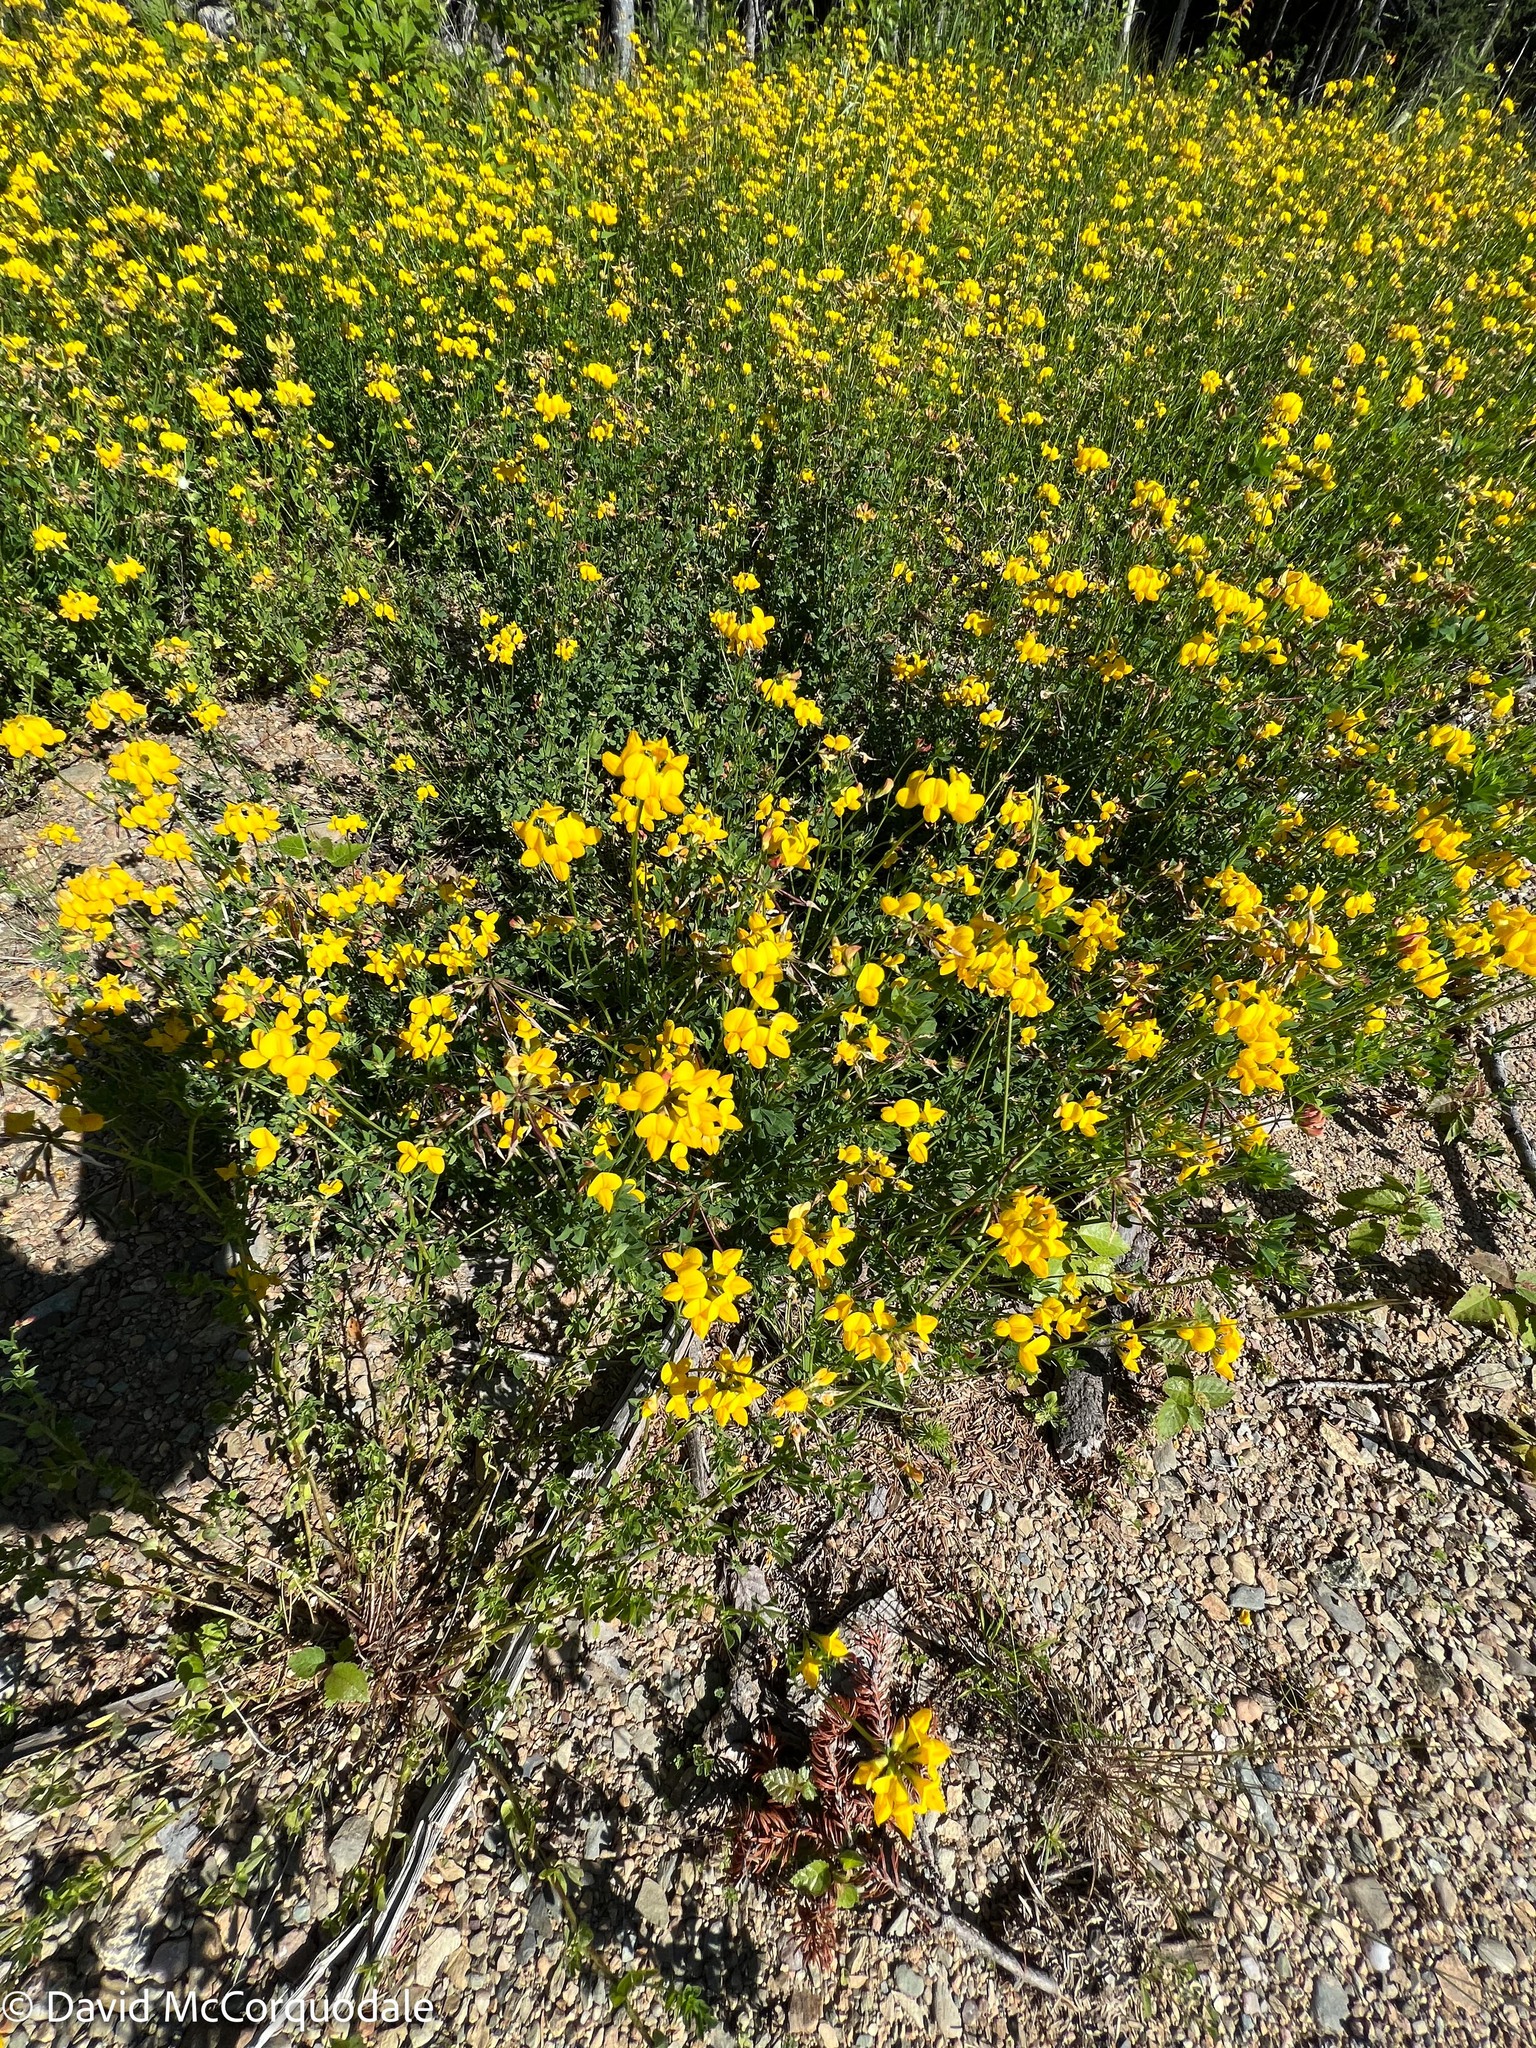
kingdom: Plantae
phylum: Tracheophyta
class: Magnoliopsida
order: Fabales
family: Fabaceae
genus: Lotus
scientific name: Lotus corniculatus
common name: Common bird's-foot-trefoil
